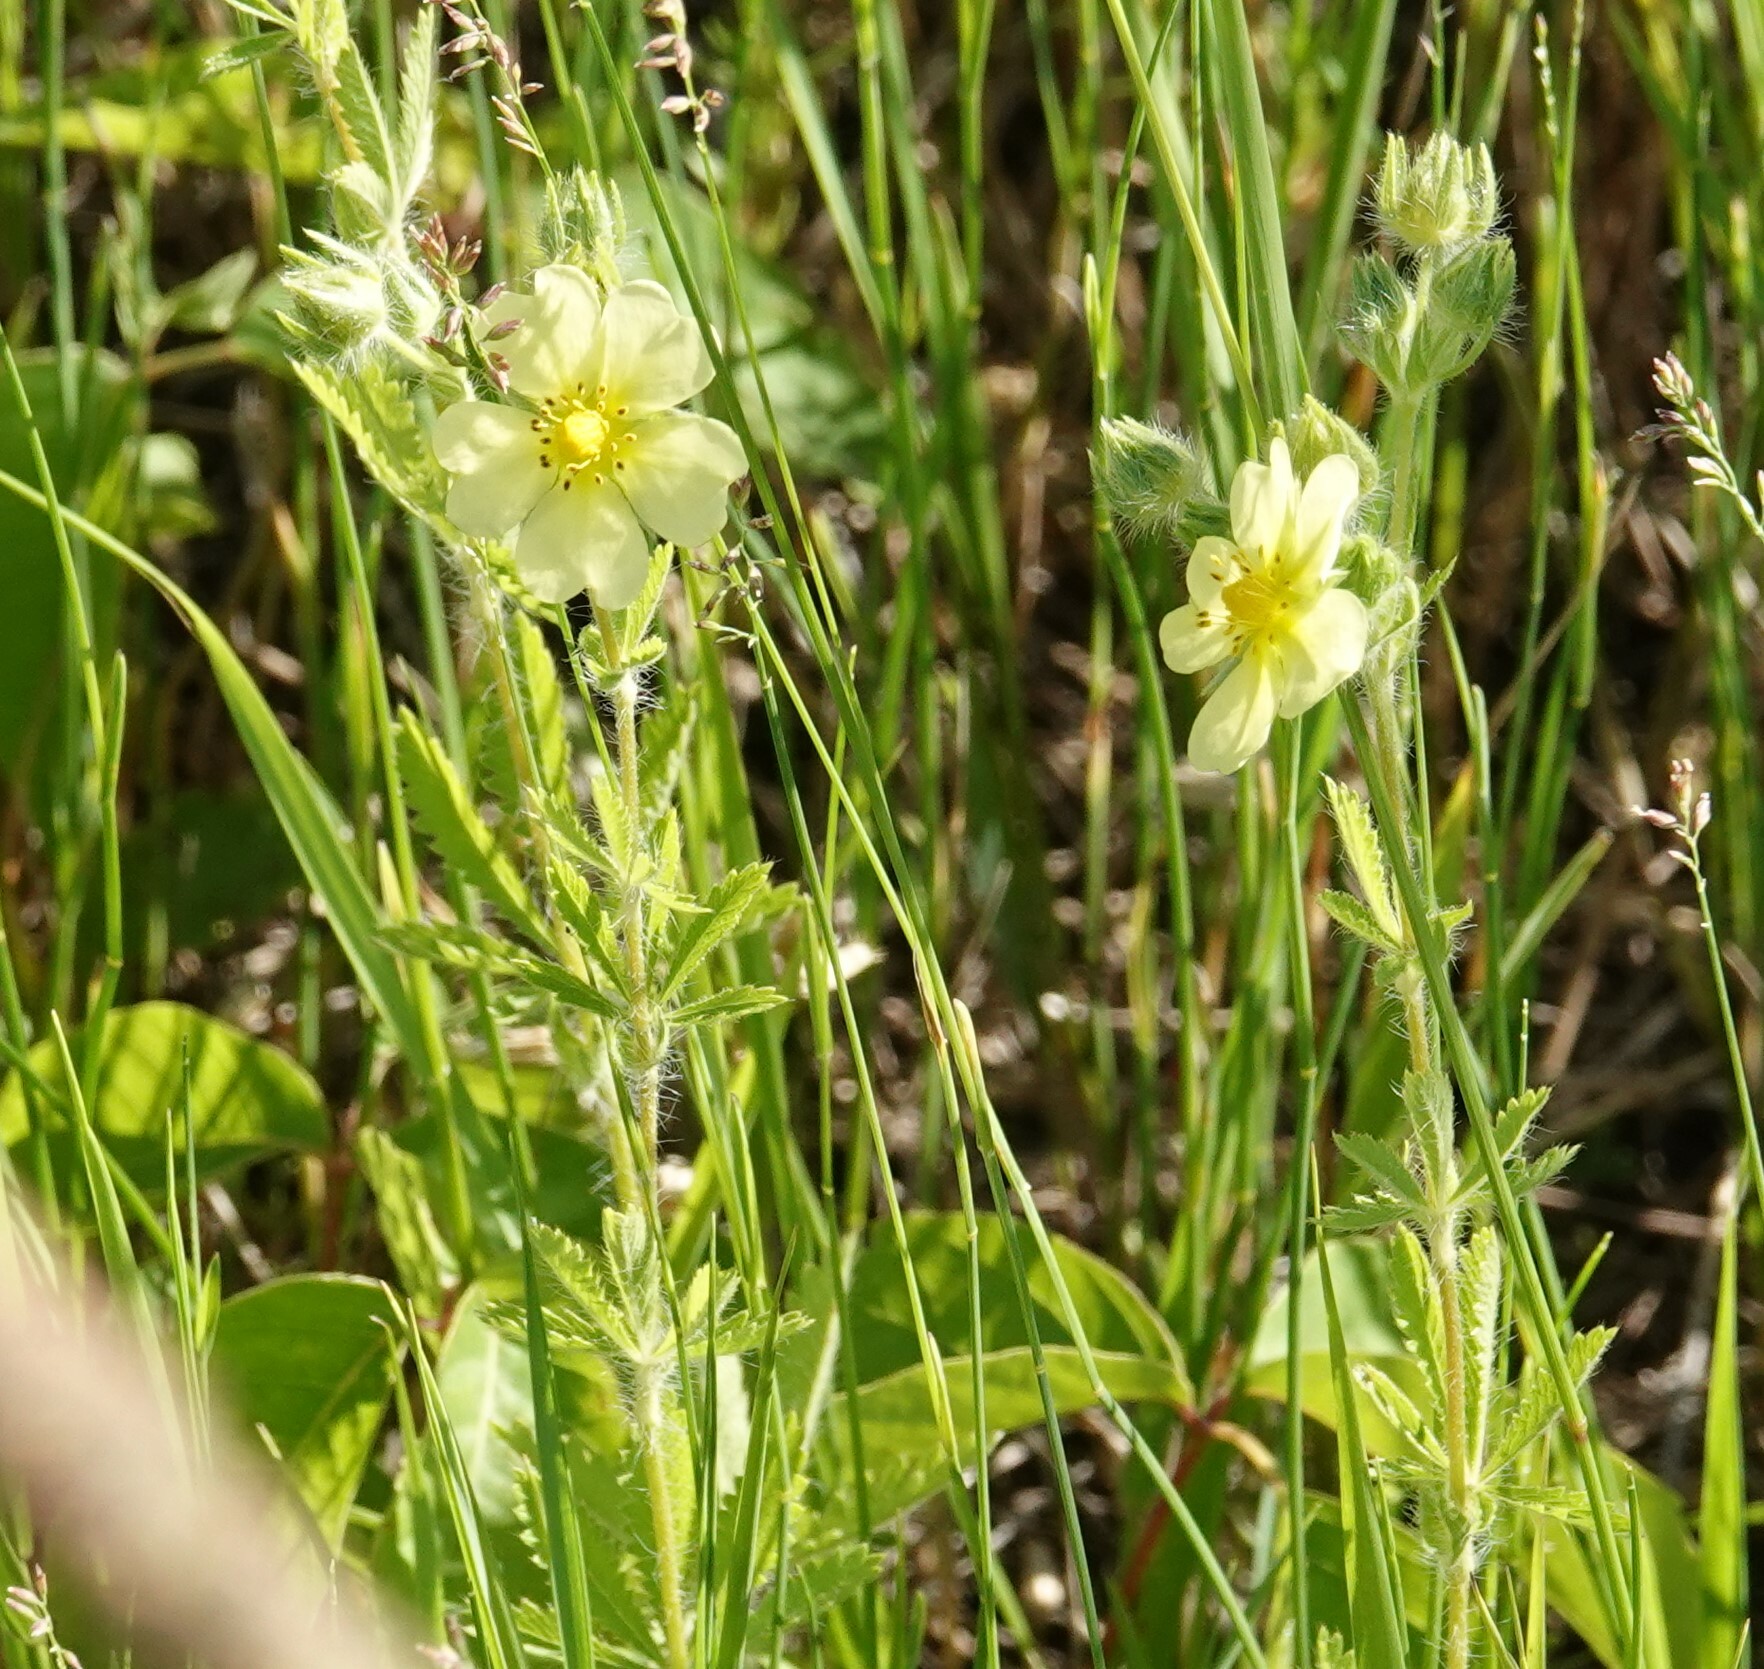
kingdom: Plantae
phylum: Tracheophyta
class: Magnoliopsida
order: Rosales
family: Rosaceae
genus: Potentilla
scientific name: Potentilla recta
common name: Sulphur cinquefoil
